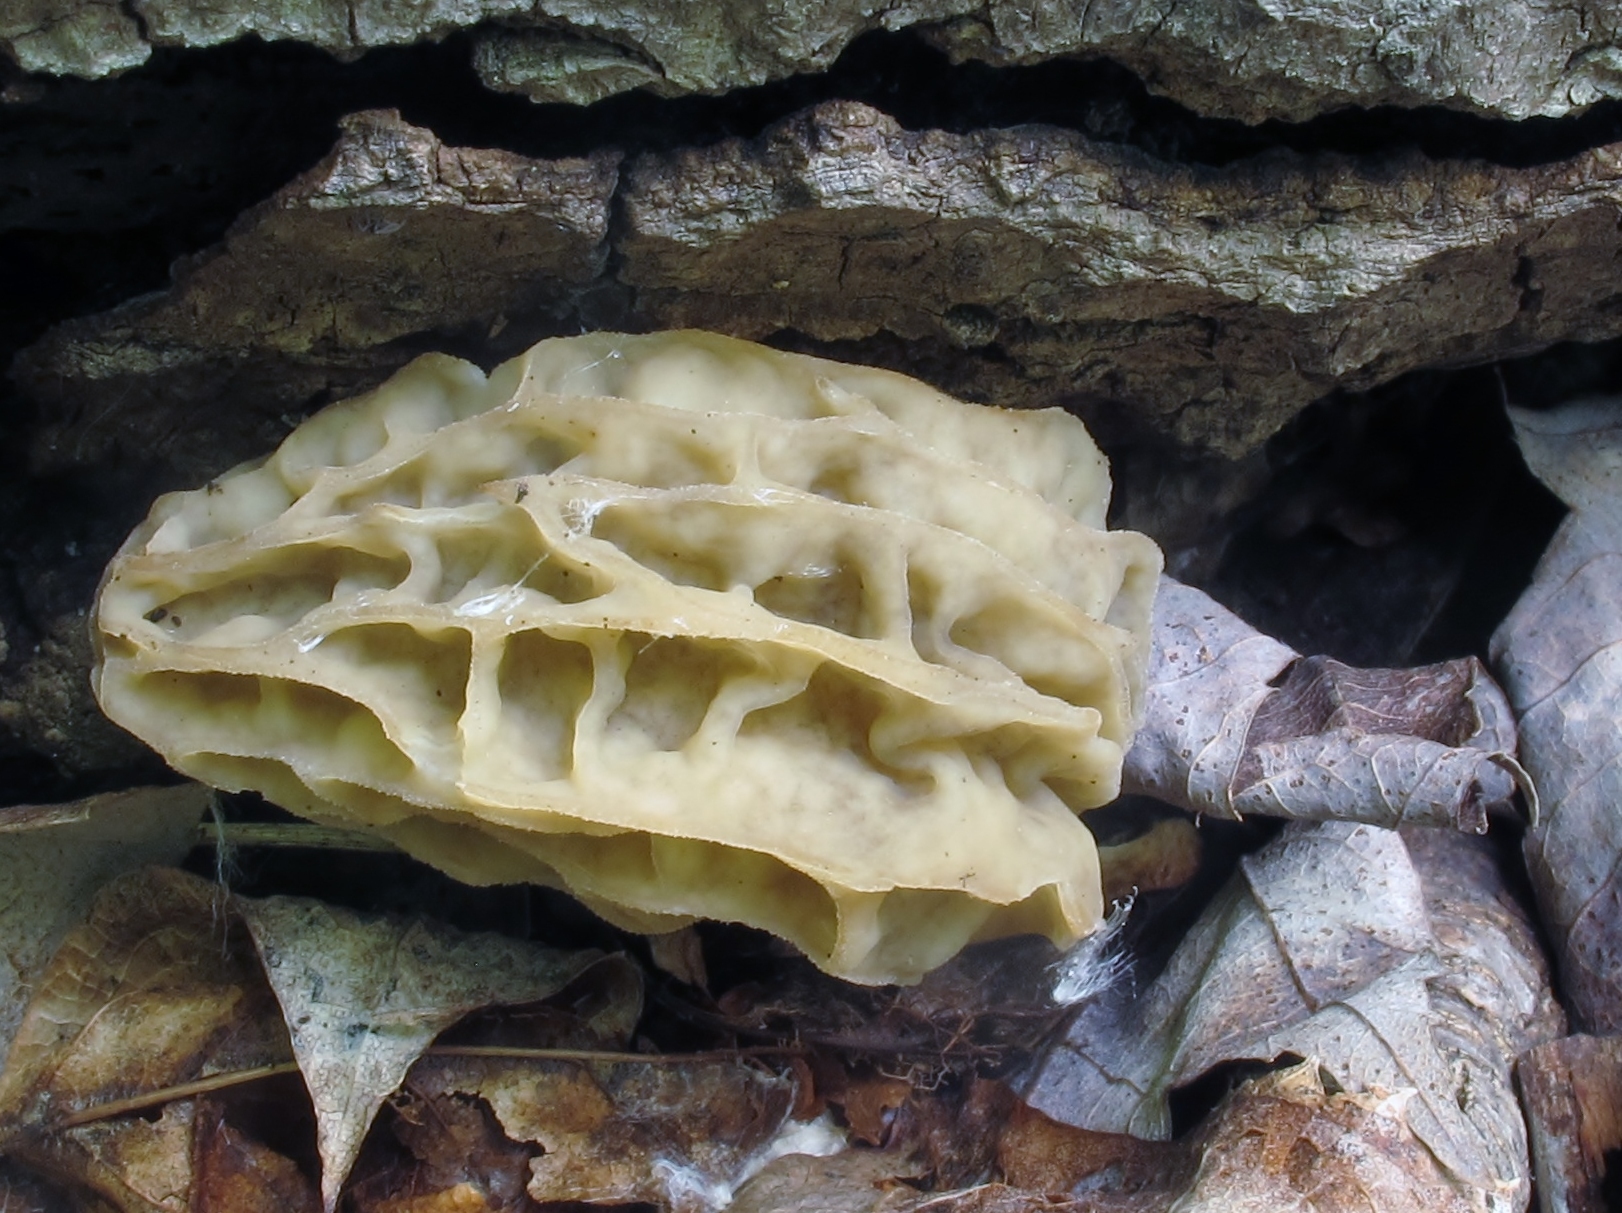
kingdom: Fungi
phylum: Ascomycota
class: Pezizomycetes
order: Pezizales
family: Morchellaceae
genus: Morchella
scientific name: Morchella diminutiva
